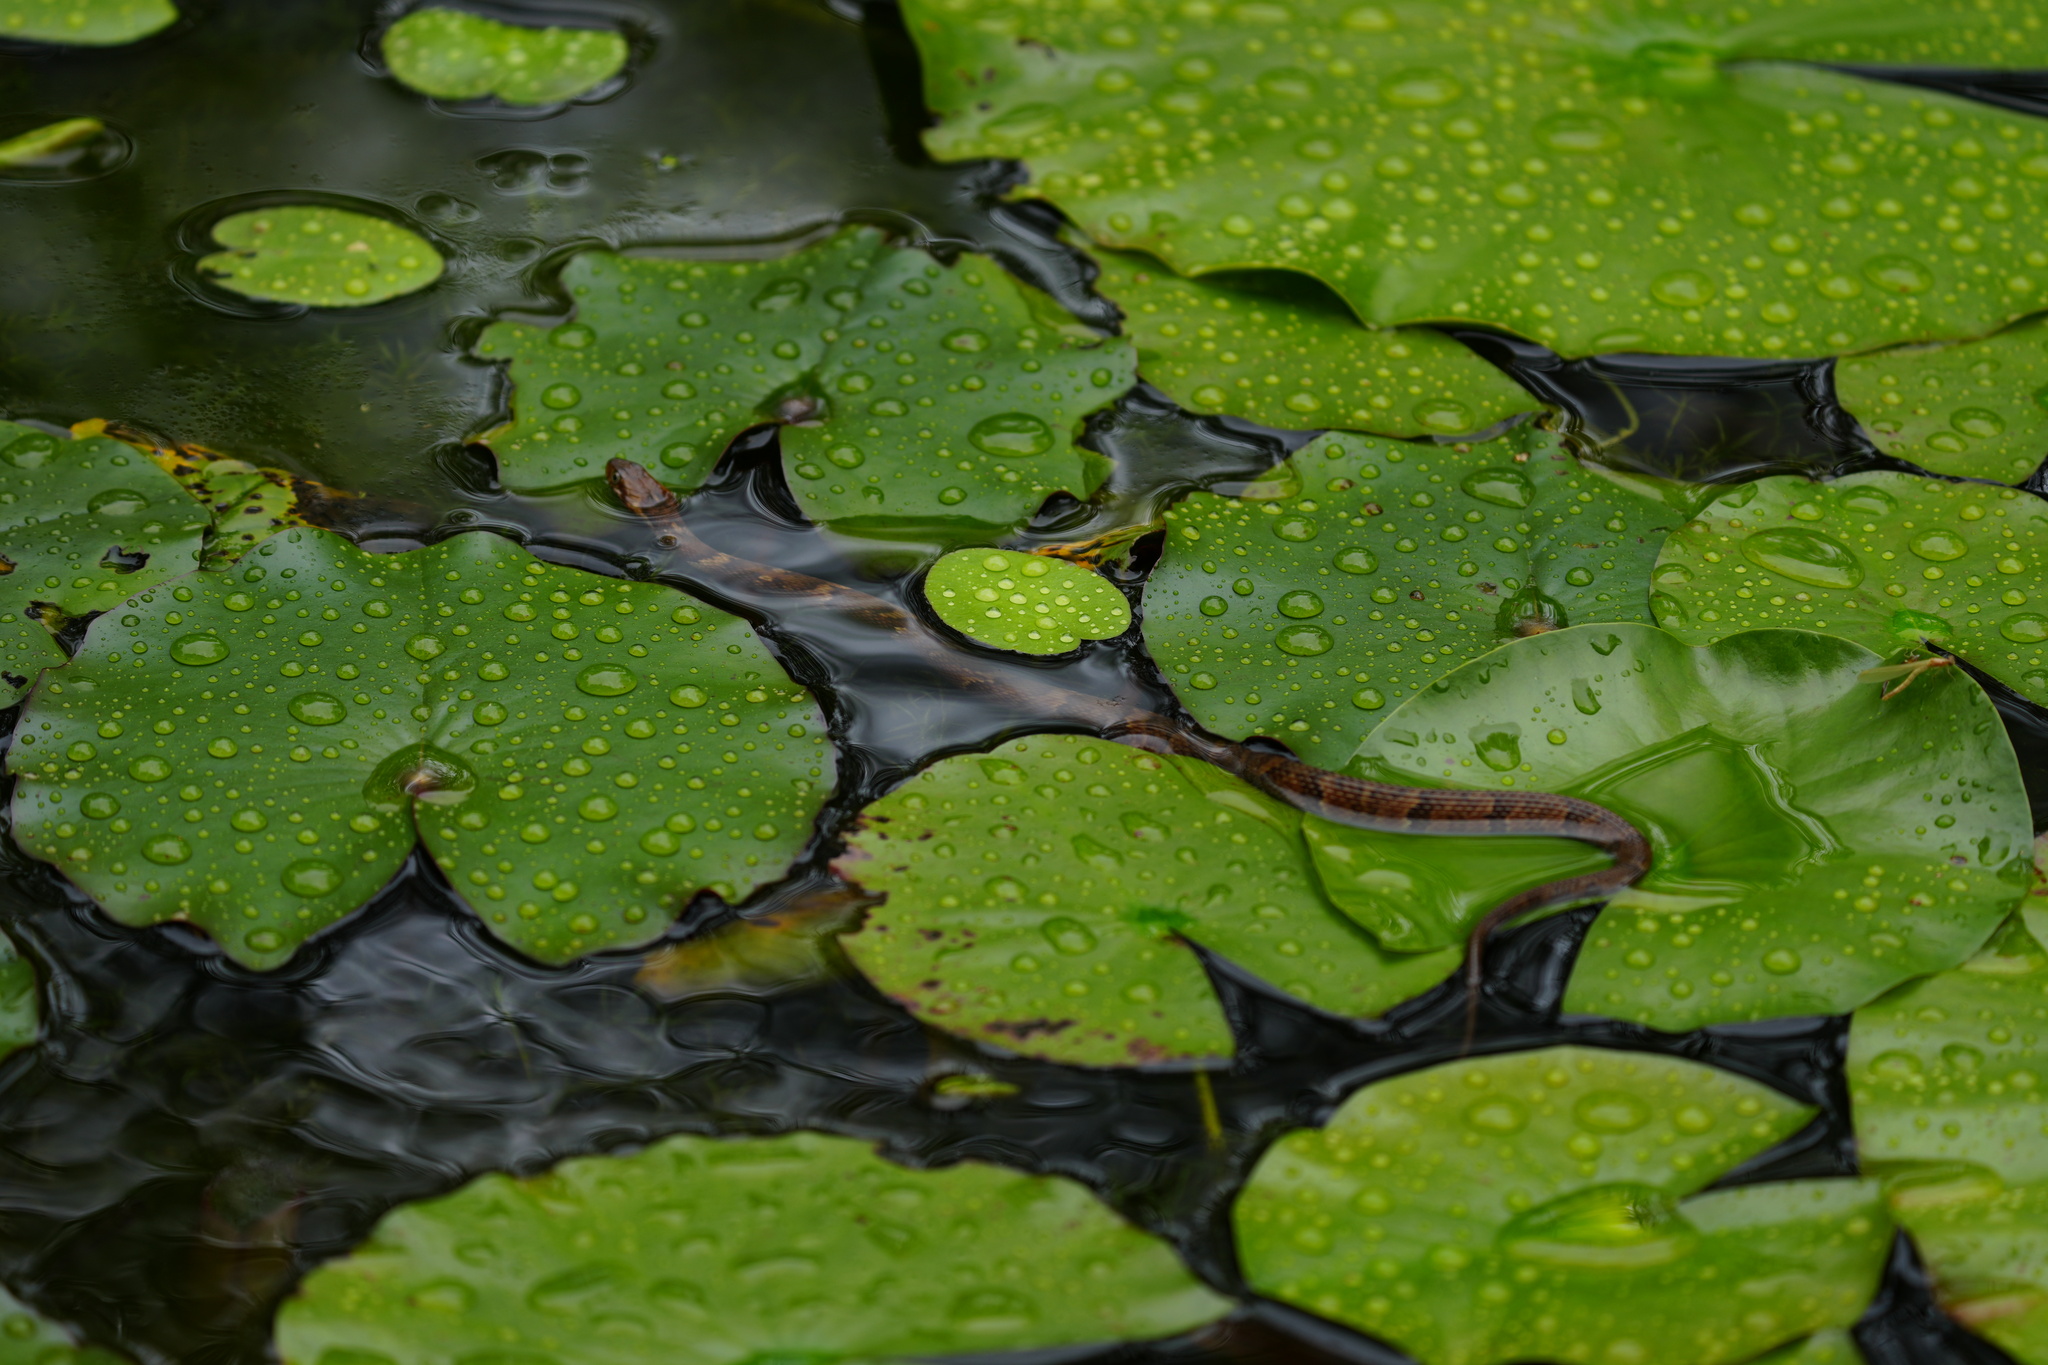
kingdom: Animalia
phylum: Chordata
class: Squamata
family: Colubridae
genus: Nerodia
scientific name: Nerodia fasciata
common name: Southern water snake
